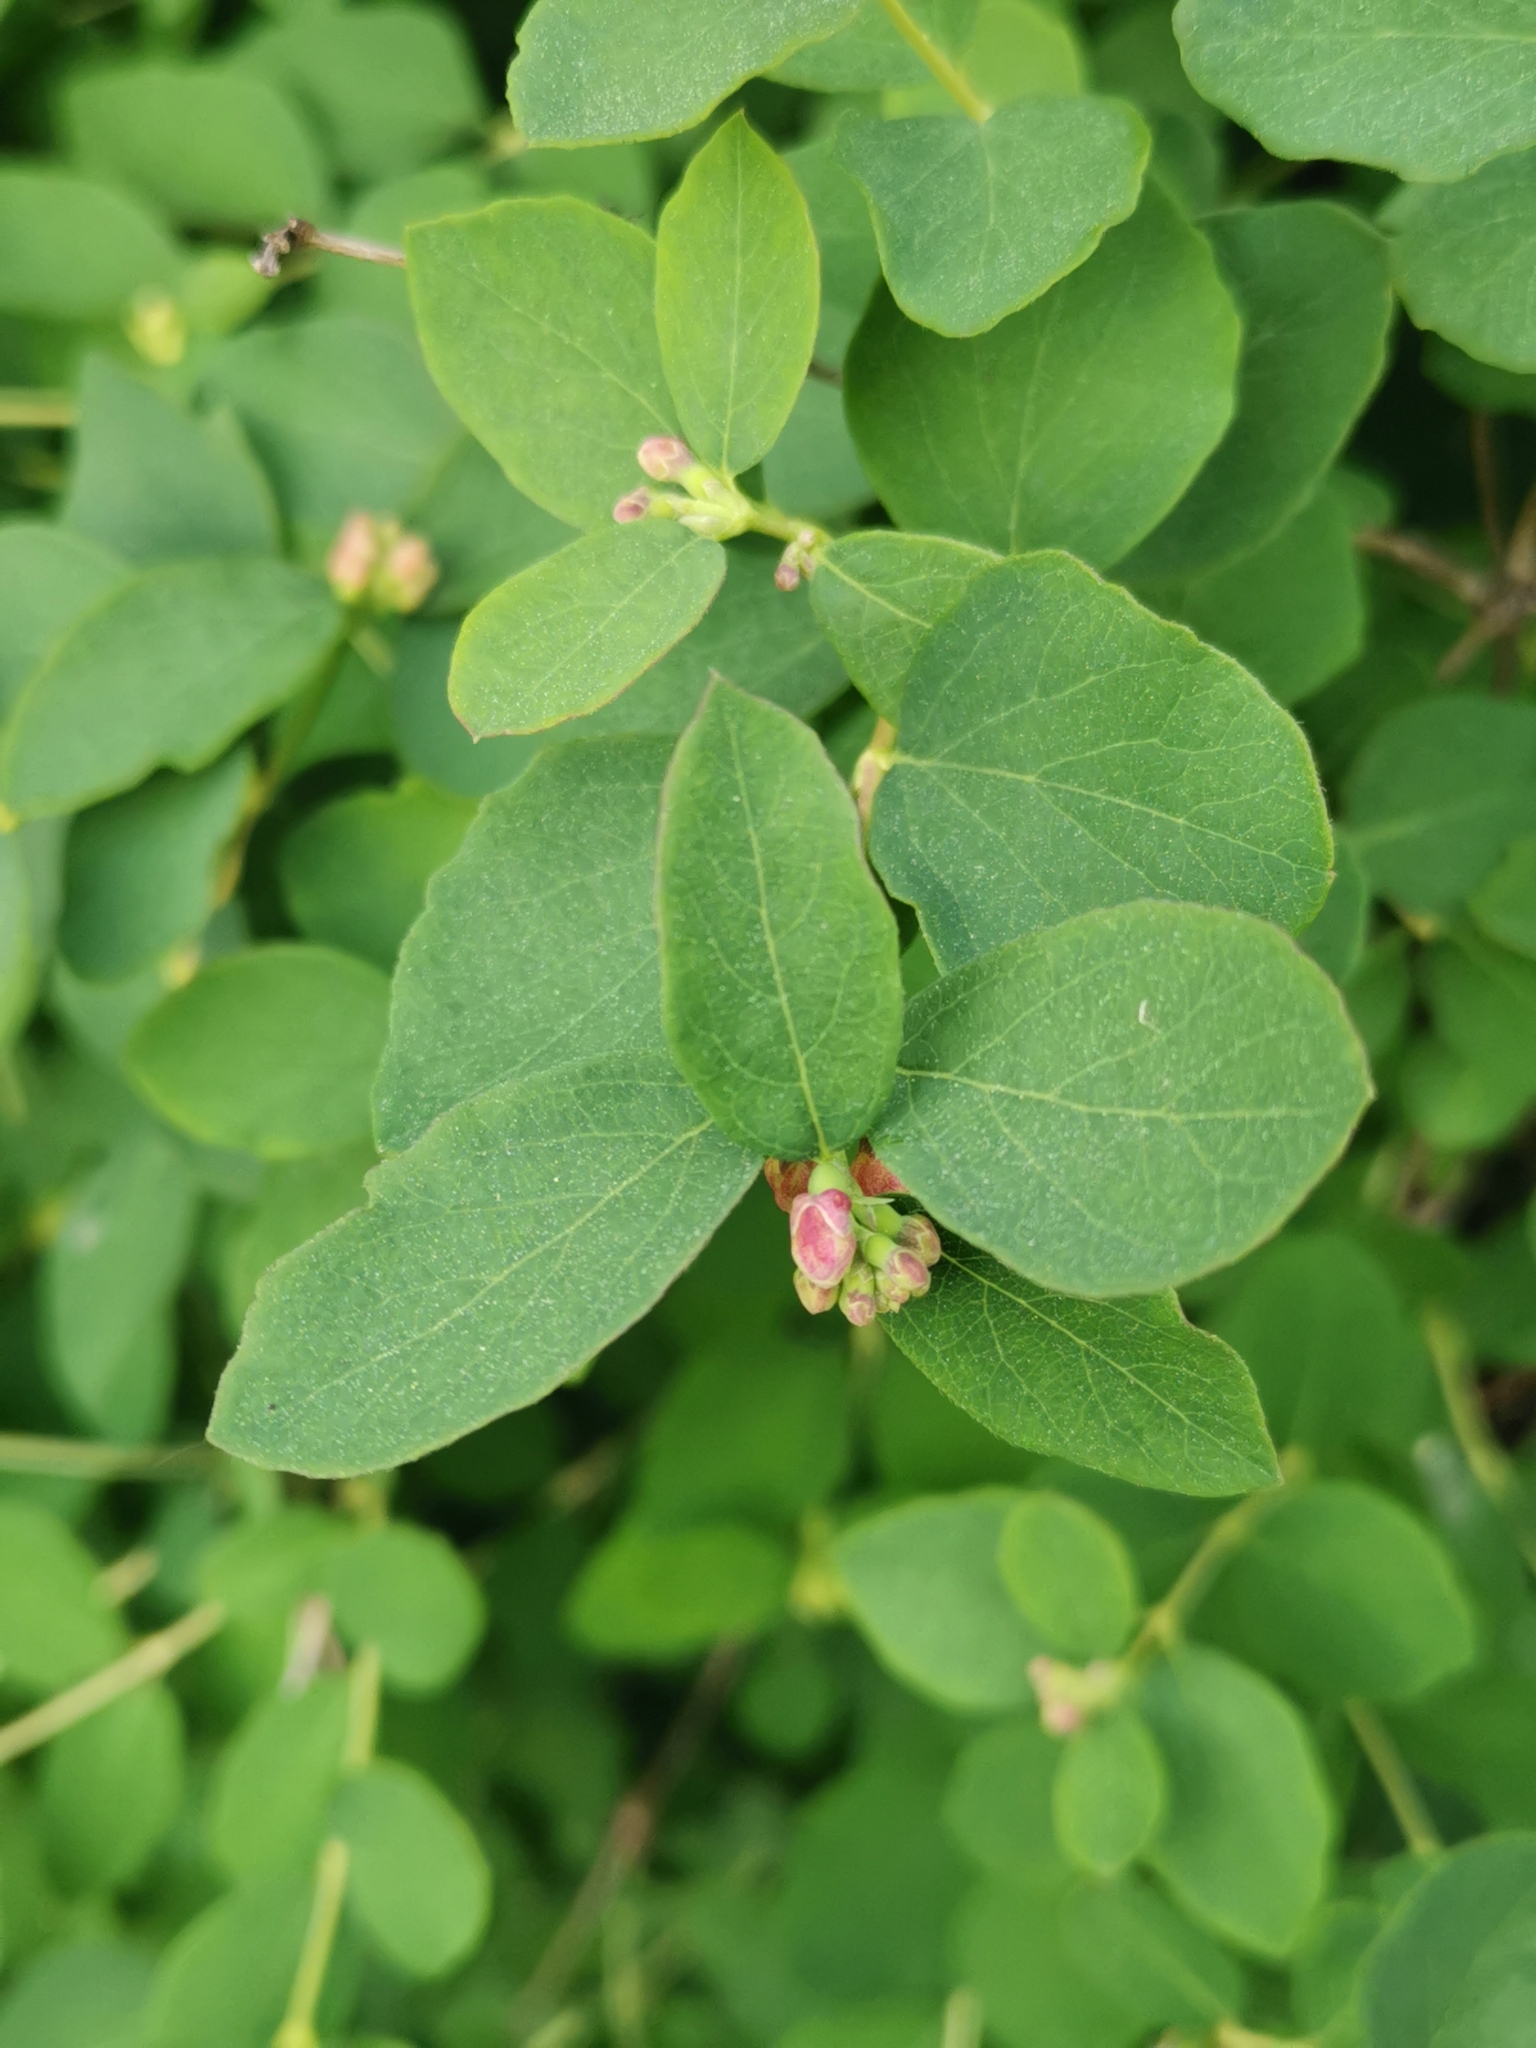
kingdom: Plantae
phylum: Tracheophyta
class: Magnoliopsida
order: Dipsacales
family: Caprifoliaceae
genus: Symphoricarpos
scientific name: Symphoricarpos albus
